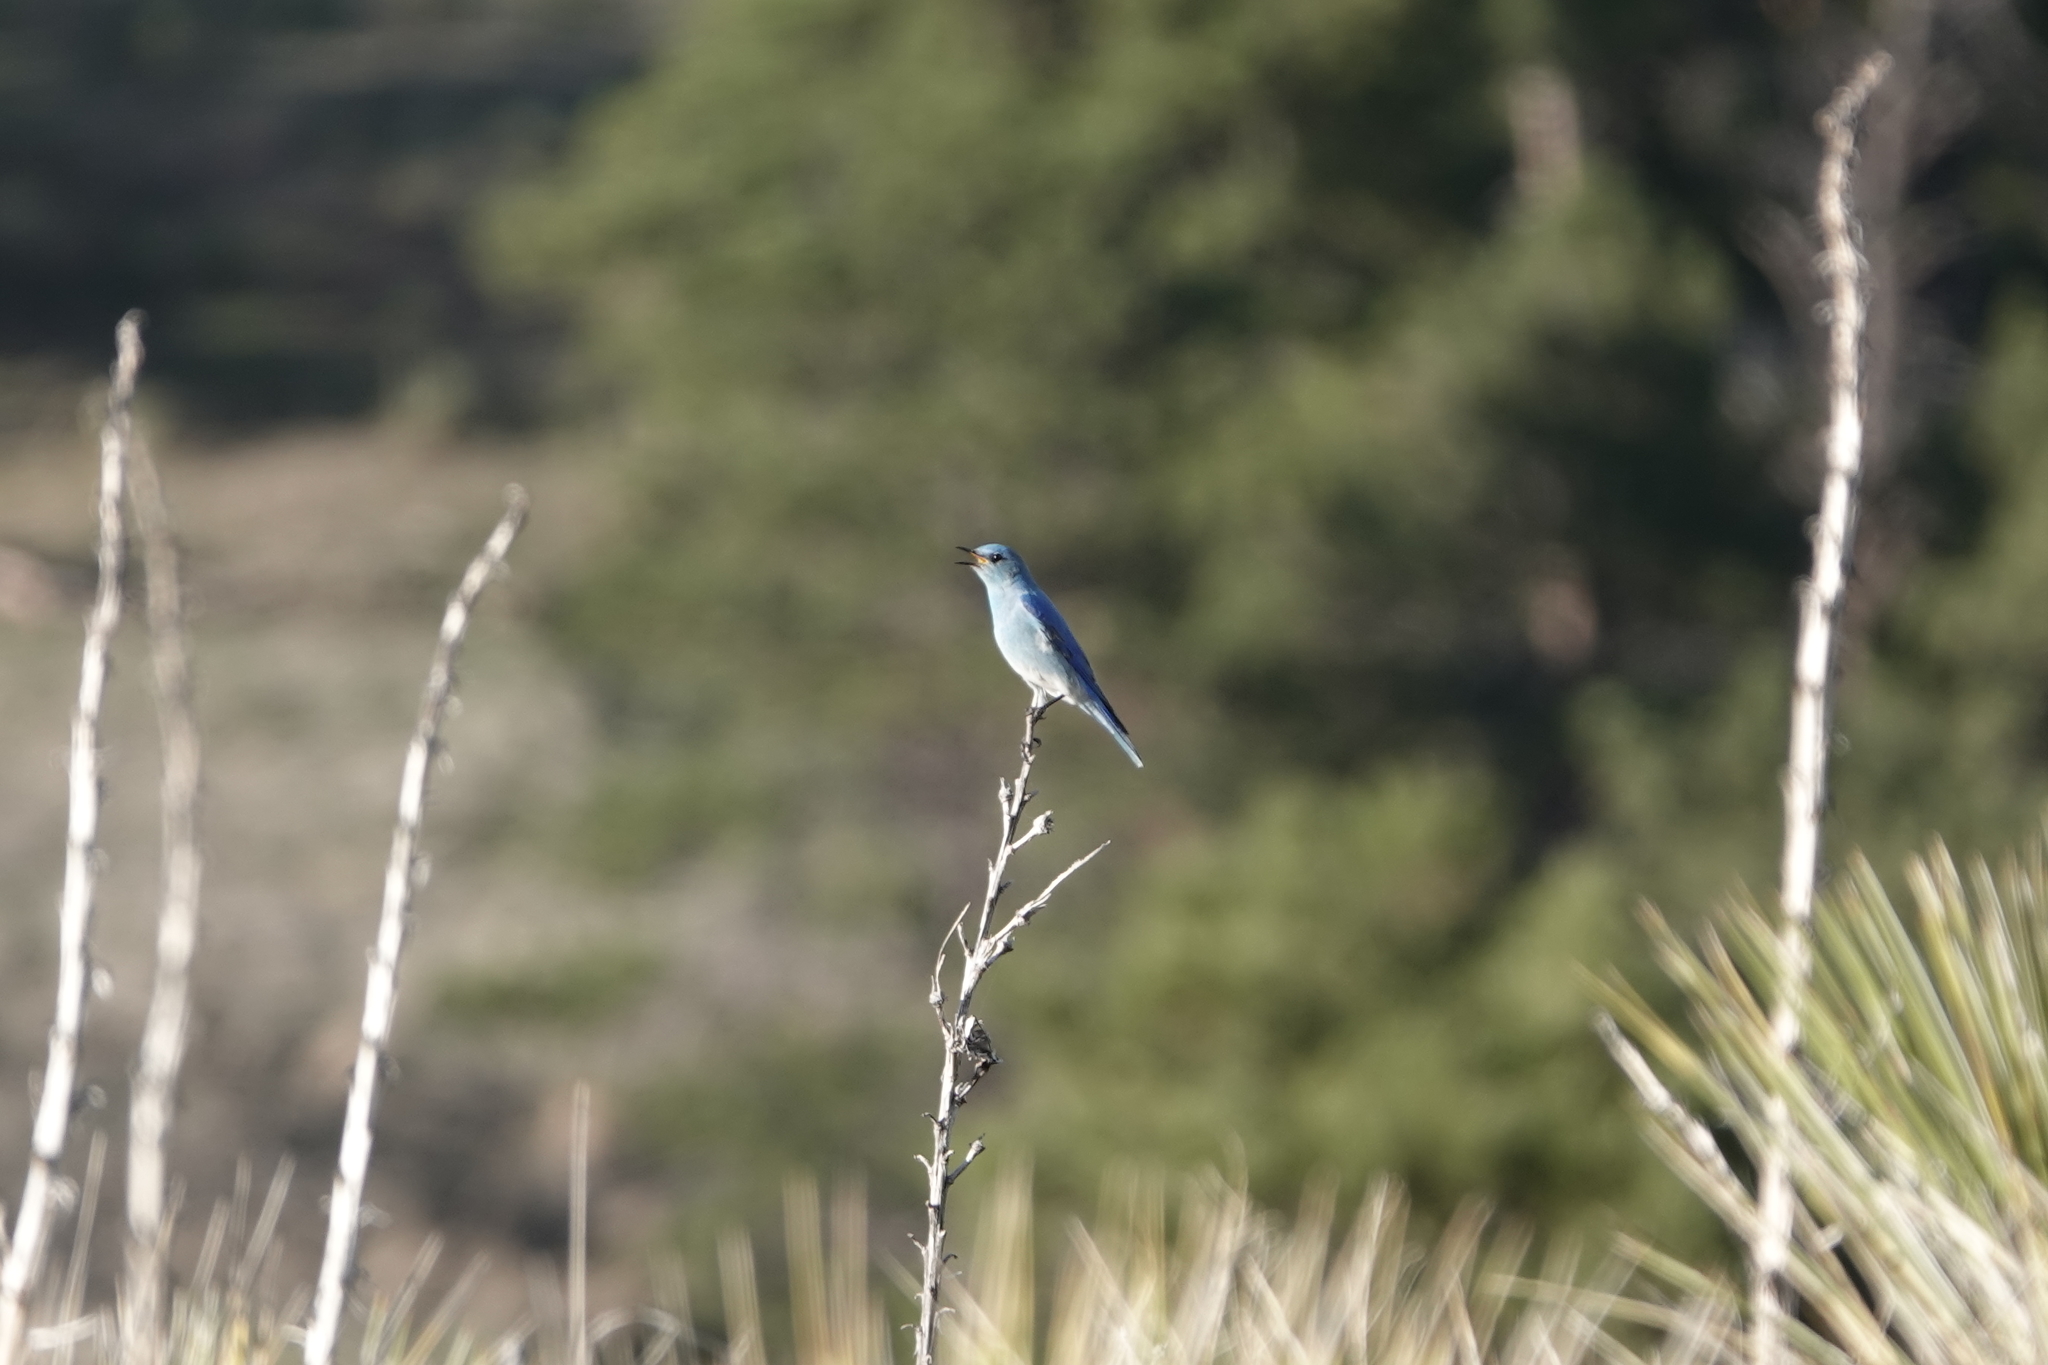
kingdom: Animalia
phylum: Chordata
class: Aves
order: Passeriformes
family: Turdidae
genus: Sialia
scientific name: Sialia currucoides
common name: Mountain bluebird
